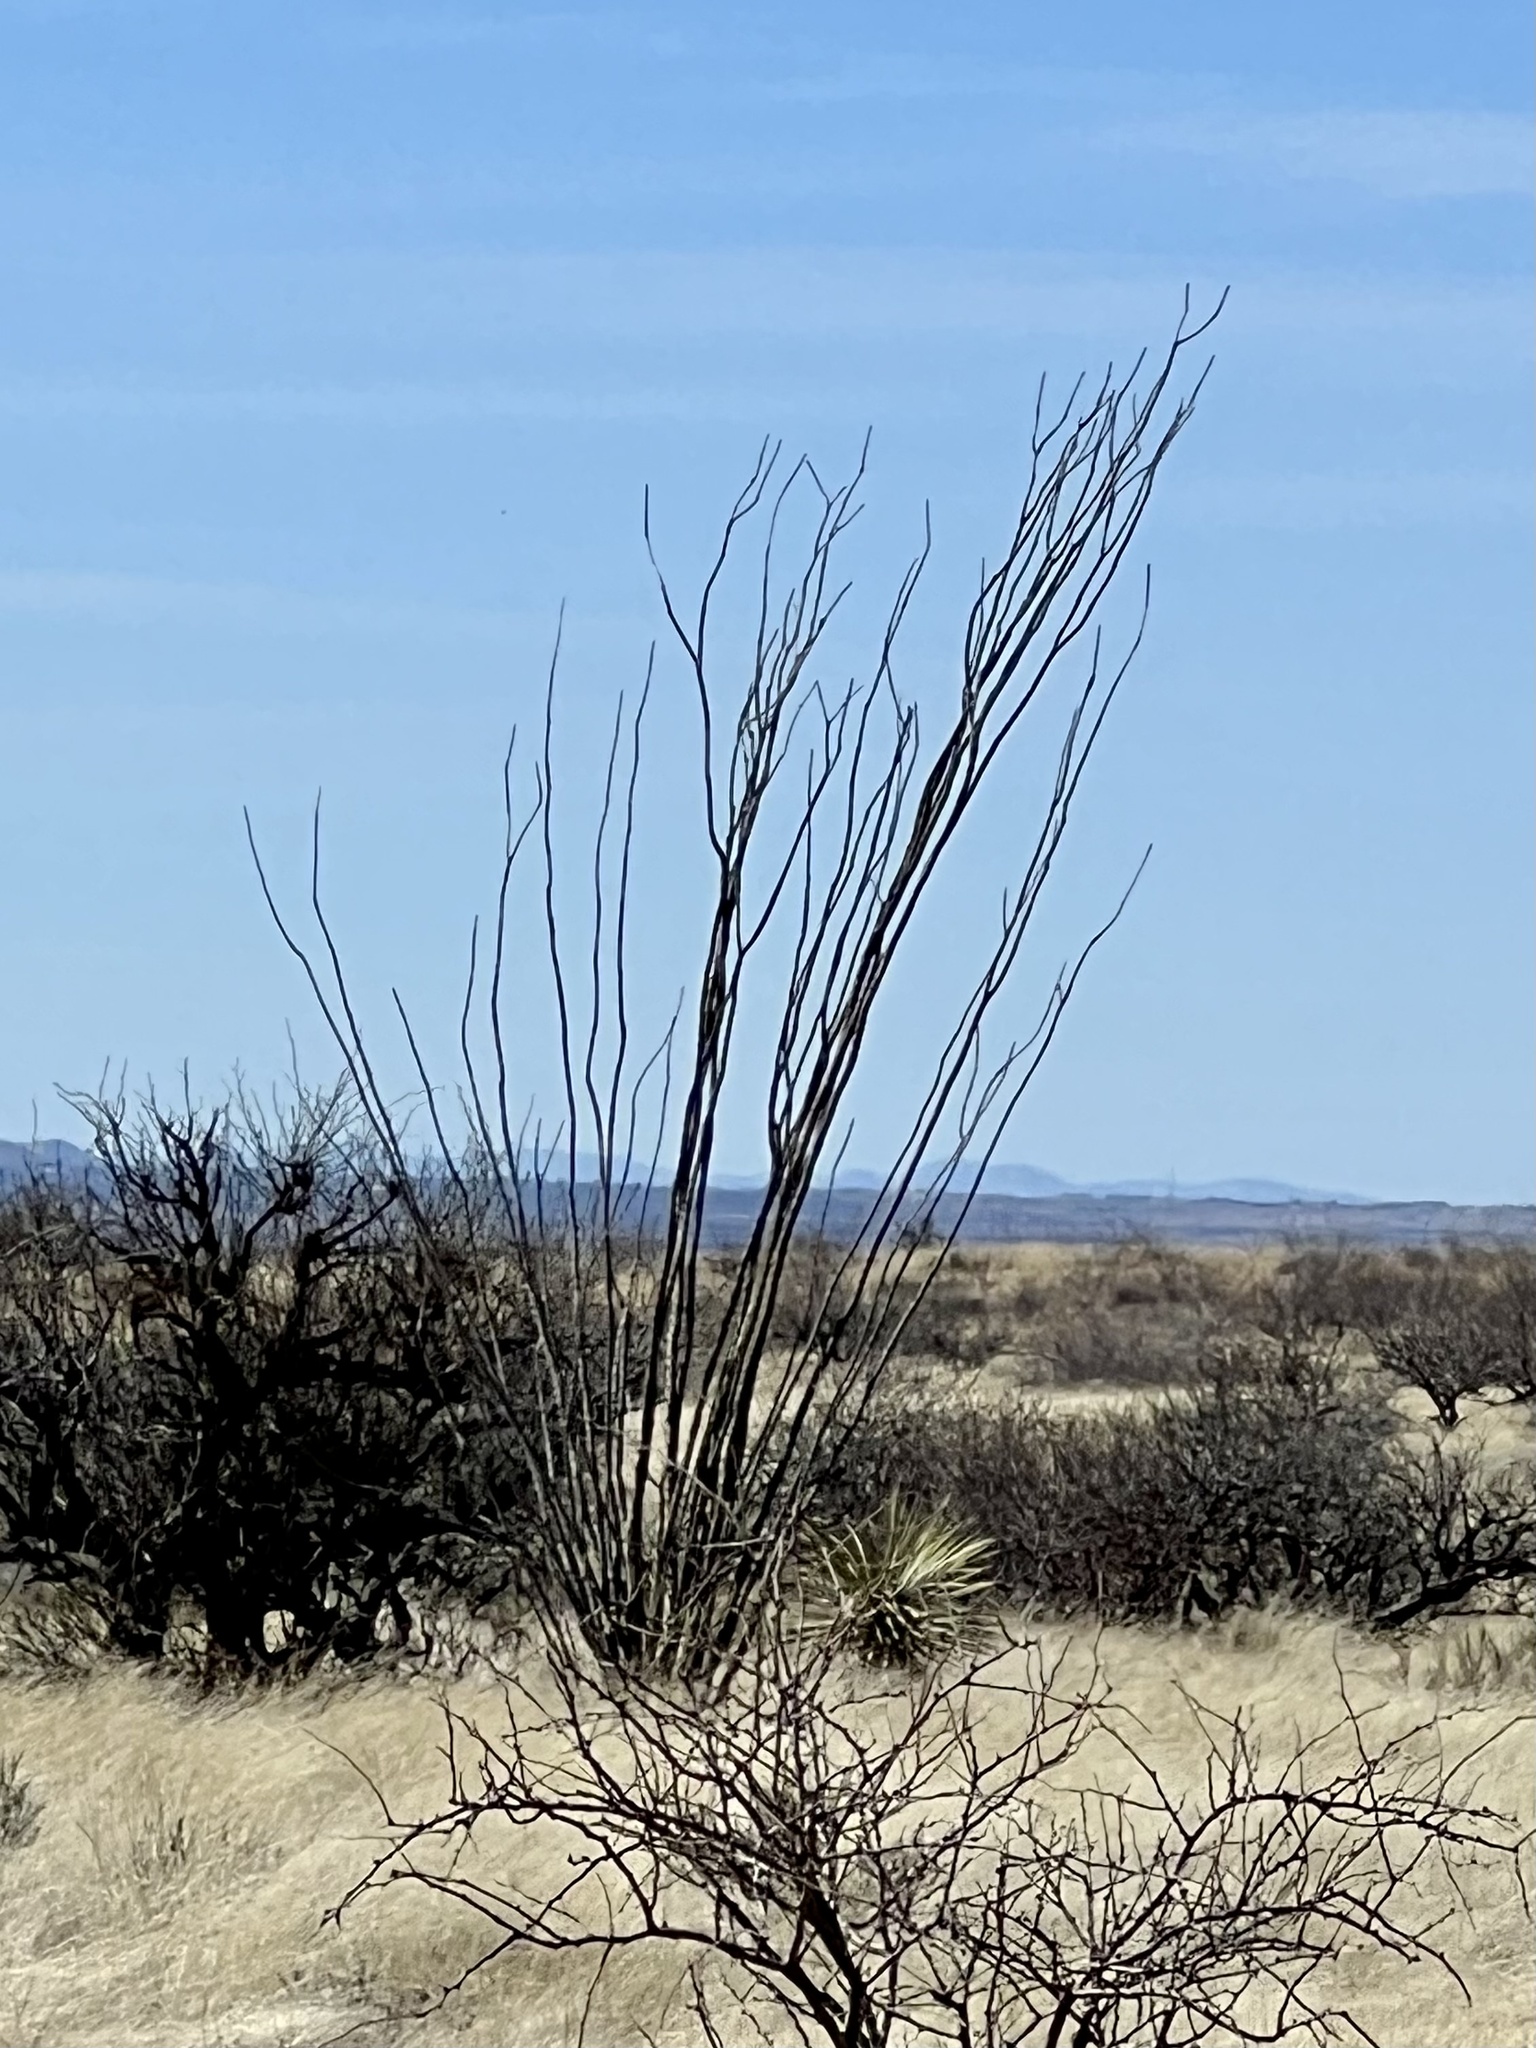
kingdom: Plantae
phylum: Tracheophyta
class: Magnoliopsida
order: Ericales
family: Fouquieriaceae
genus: Fouquieria
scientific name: Fouquieria splendens
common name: Vine-cactus
